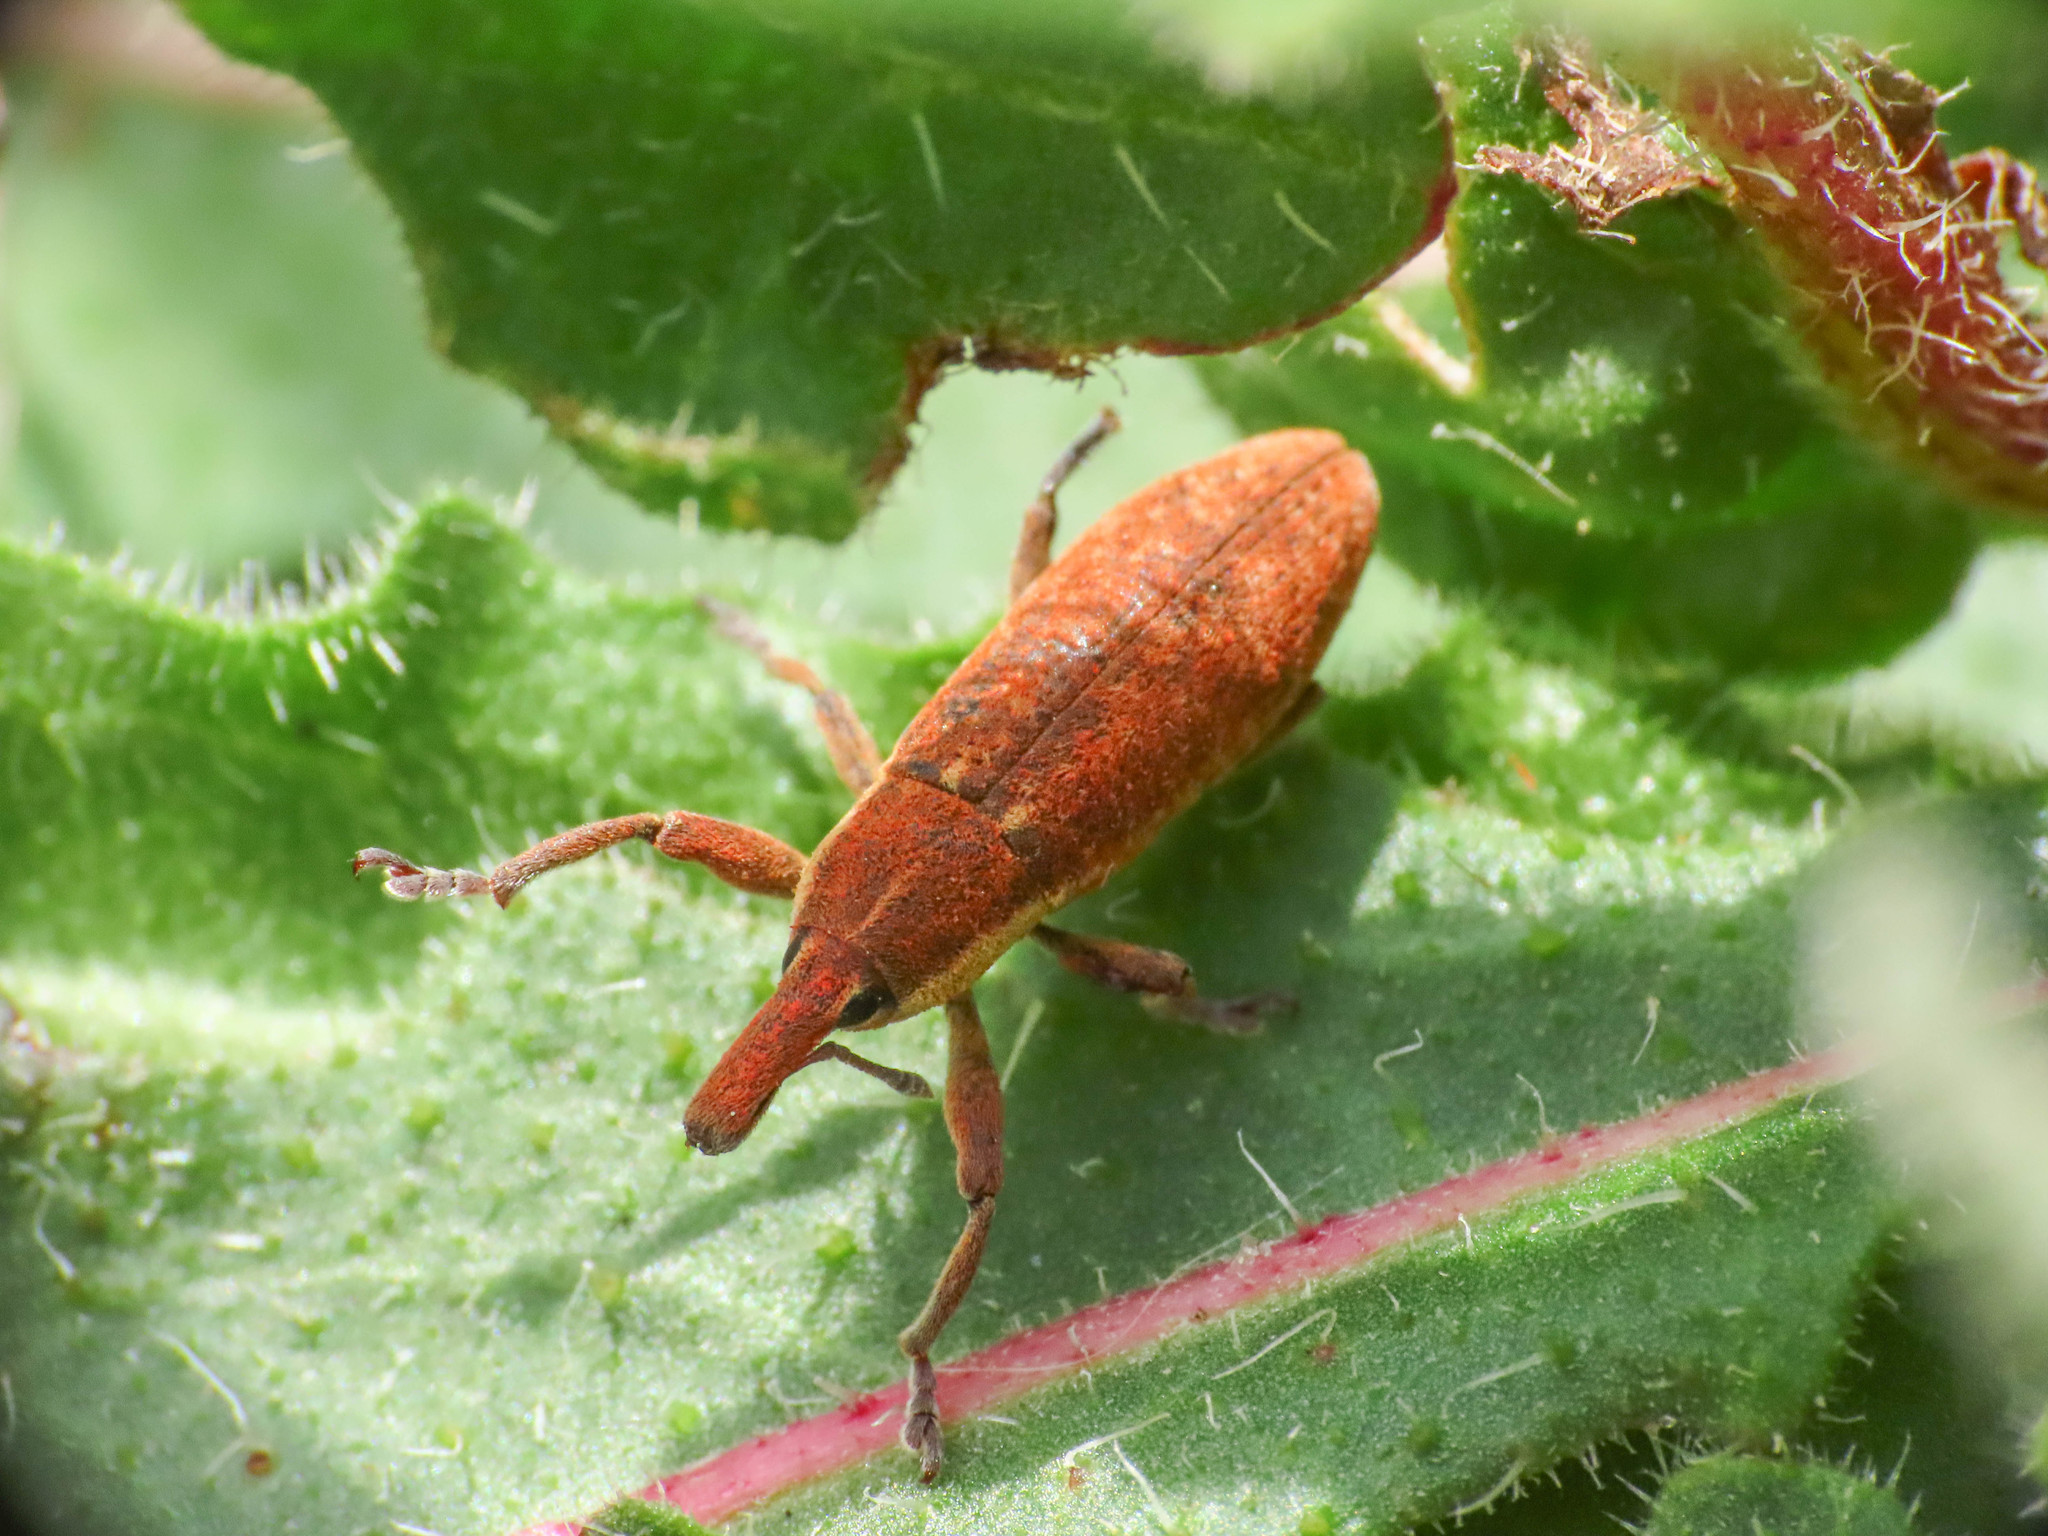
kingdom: Animalia
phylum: Arthropoda
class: Insecta
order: Coleoptera
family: Curculionidae
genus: Lixus
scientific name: Lixus punctiventris
